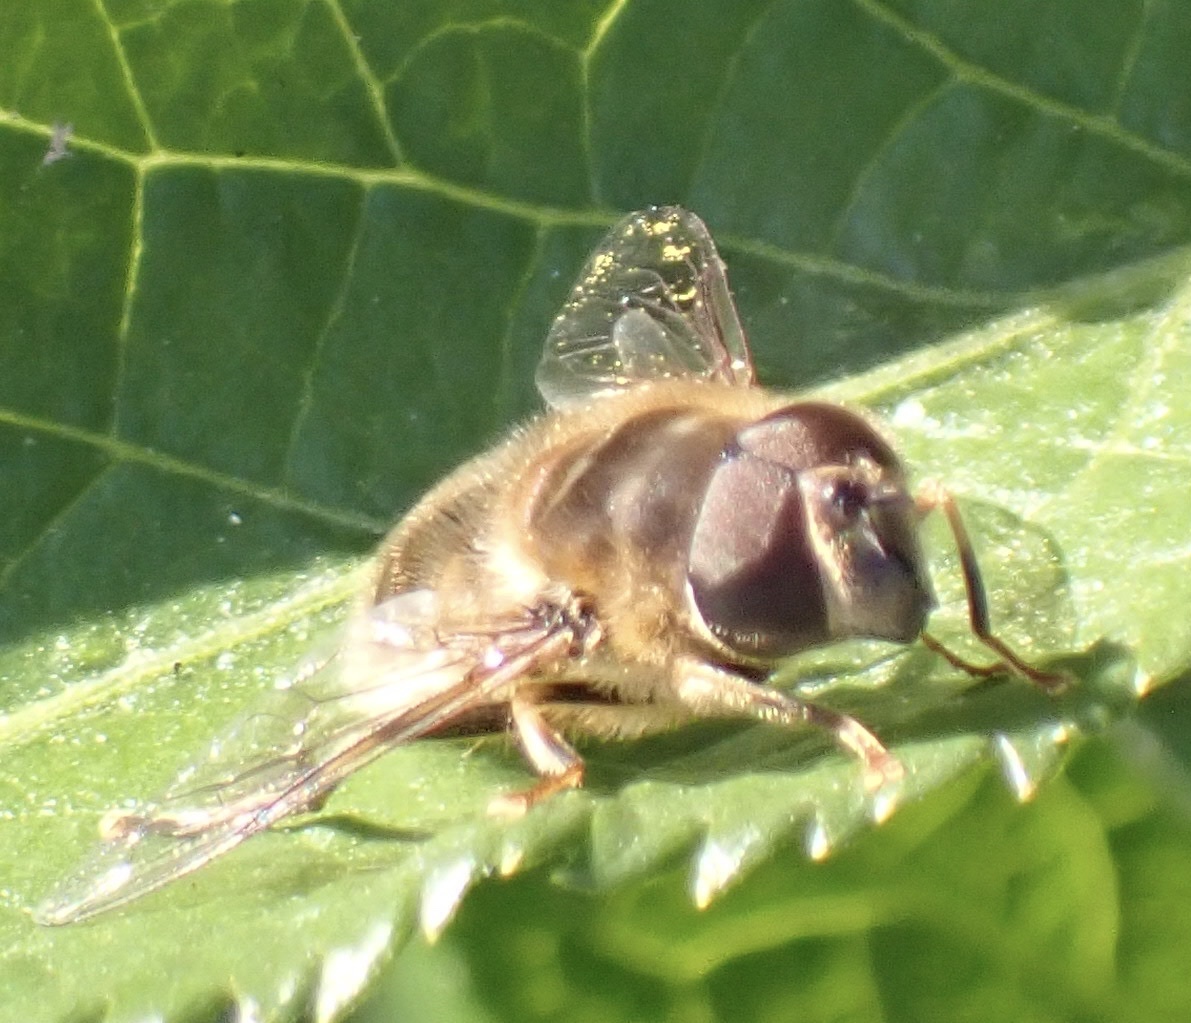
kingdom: Animalia
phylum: Arthropoda
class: Insecta
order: Diptera
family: Syrphidae
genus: Eristalis
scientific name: Eristalis pertinax
